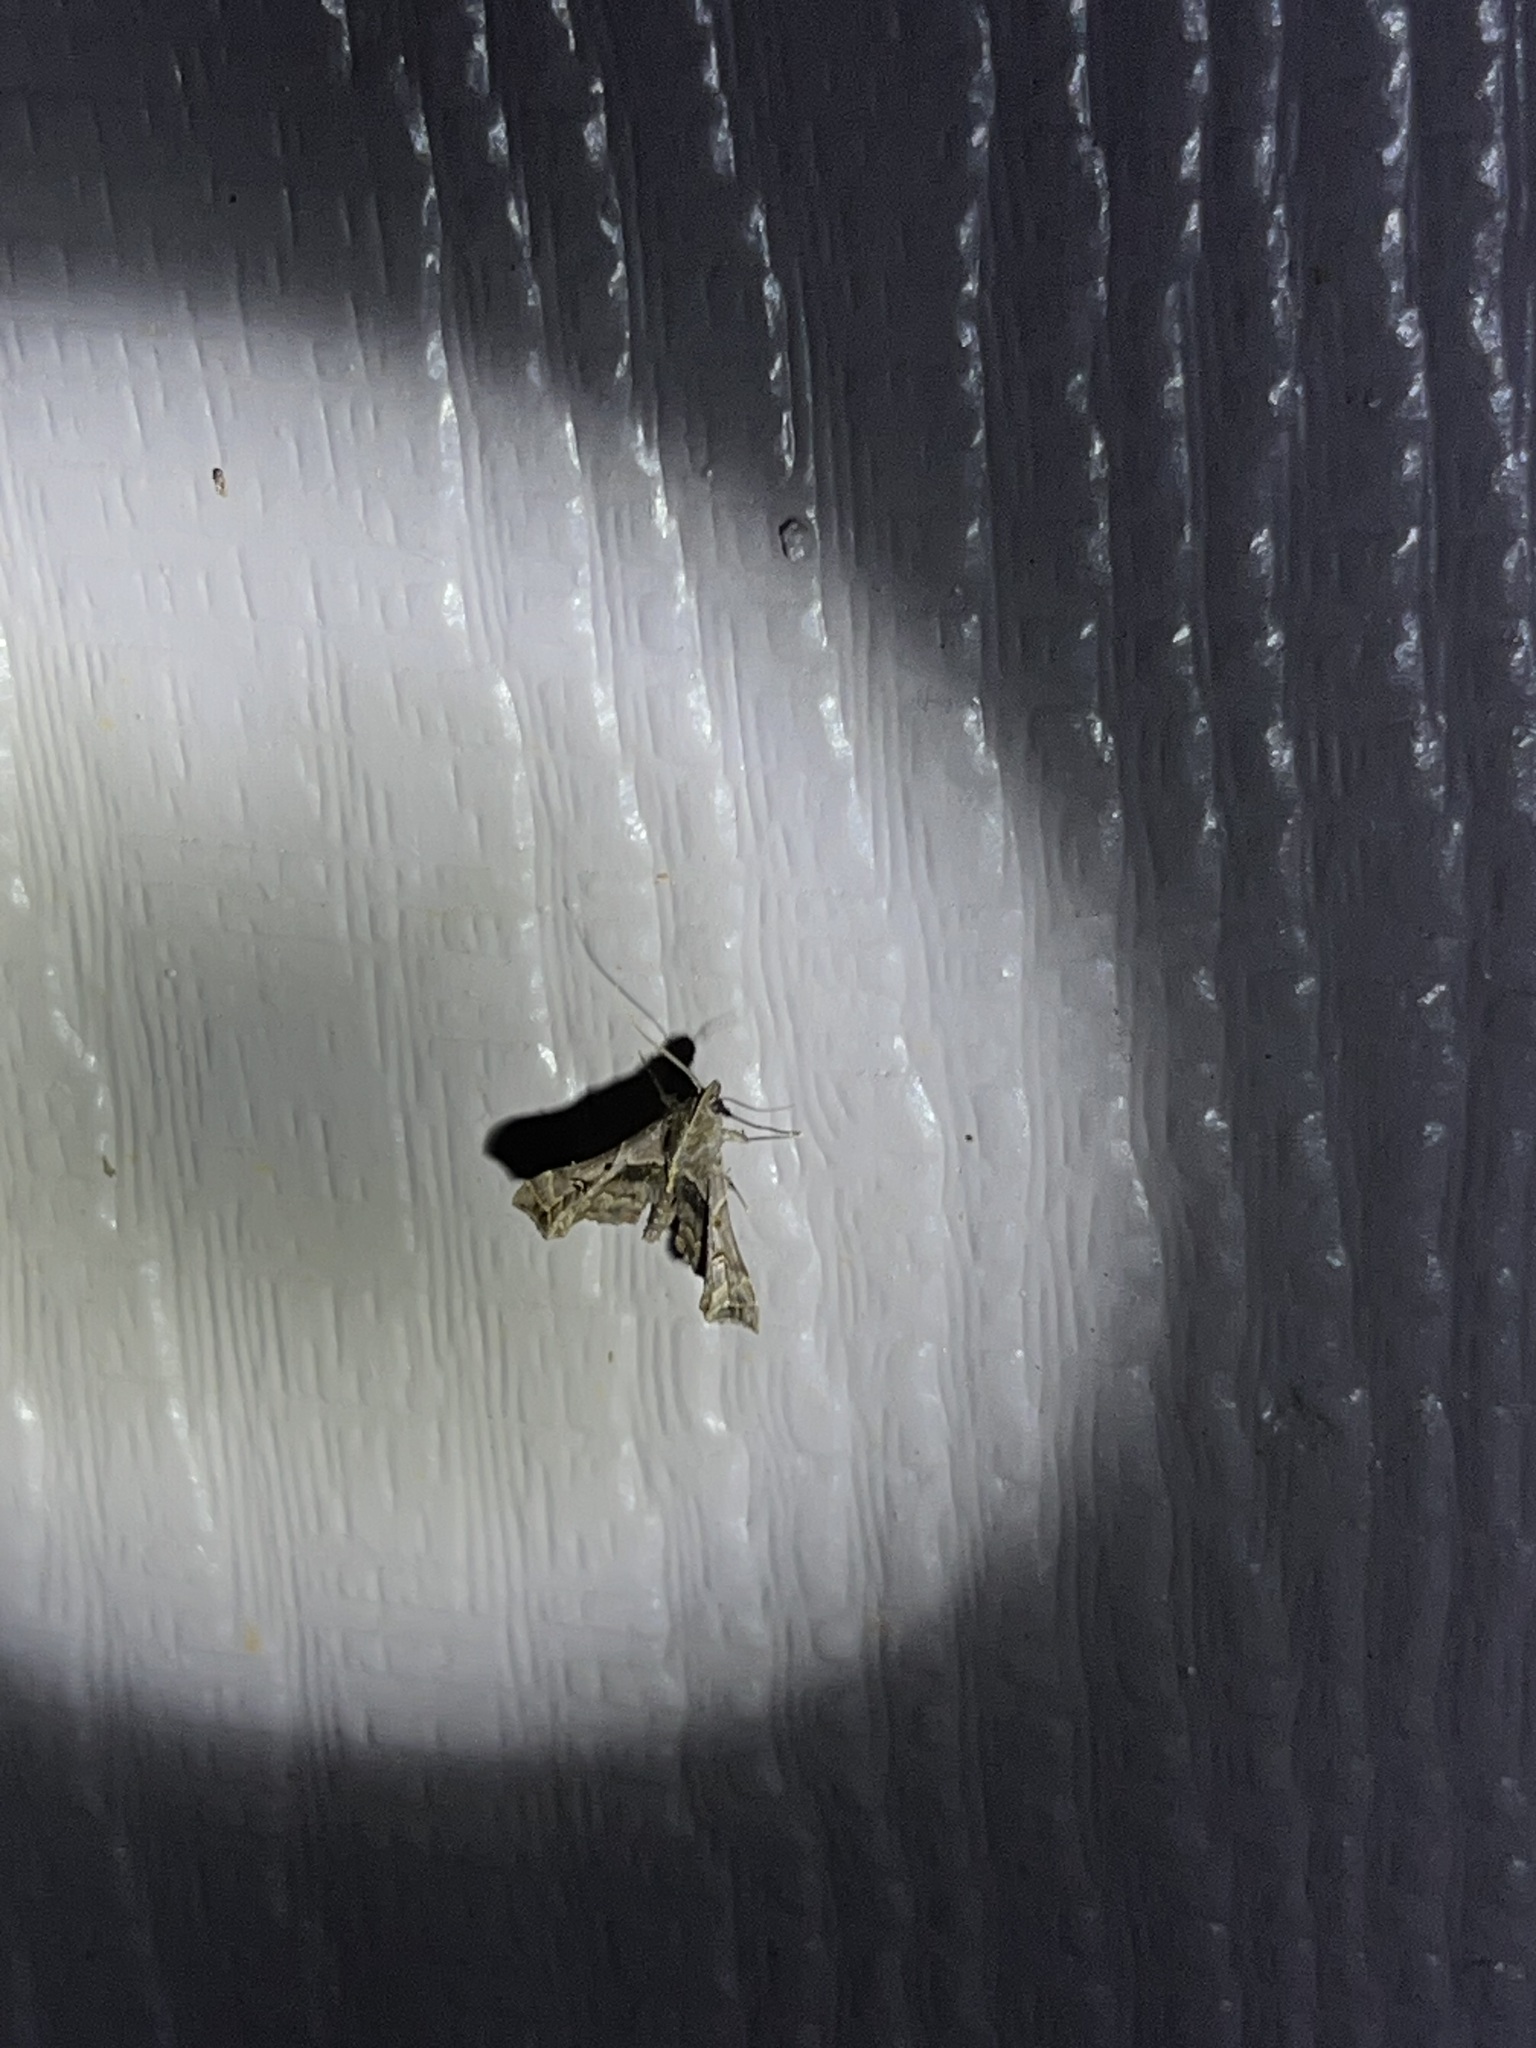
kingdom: Animalia
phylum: Arthropoda
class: Insecta
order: Lepidoptera
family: Erebidae
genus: Palthis
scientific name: Palthis asopialis
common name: Faint-spotted palthis moth
